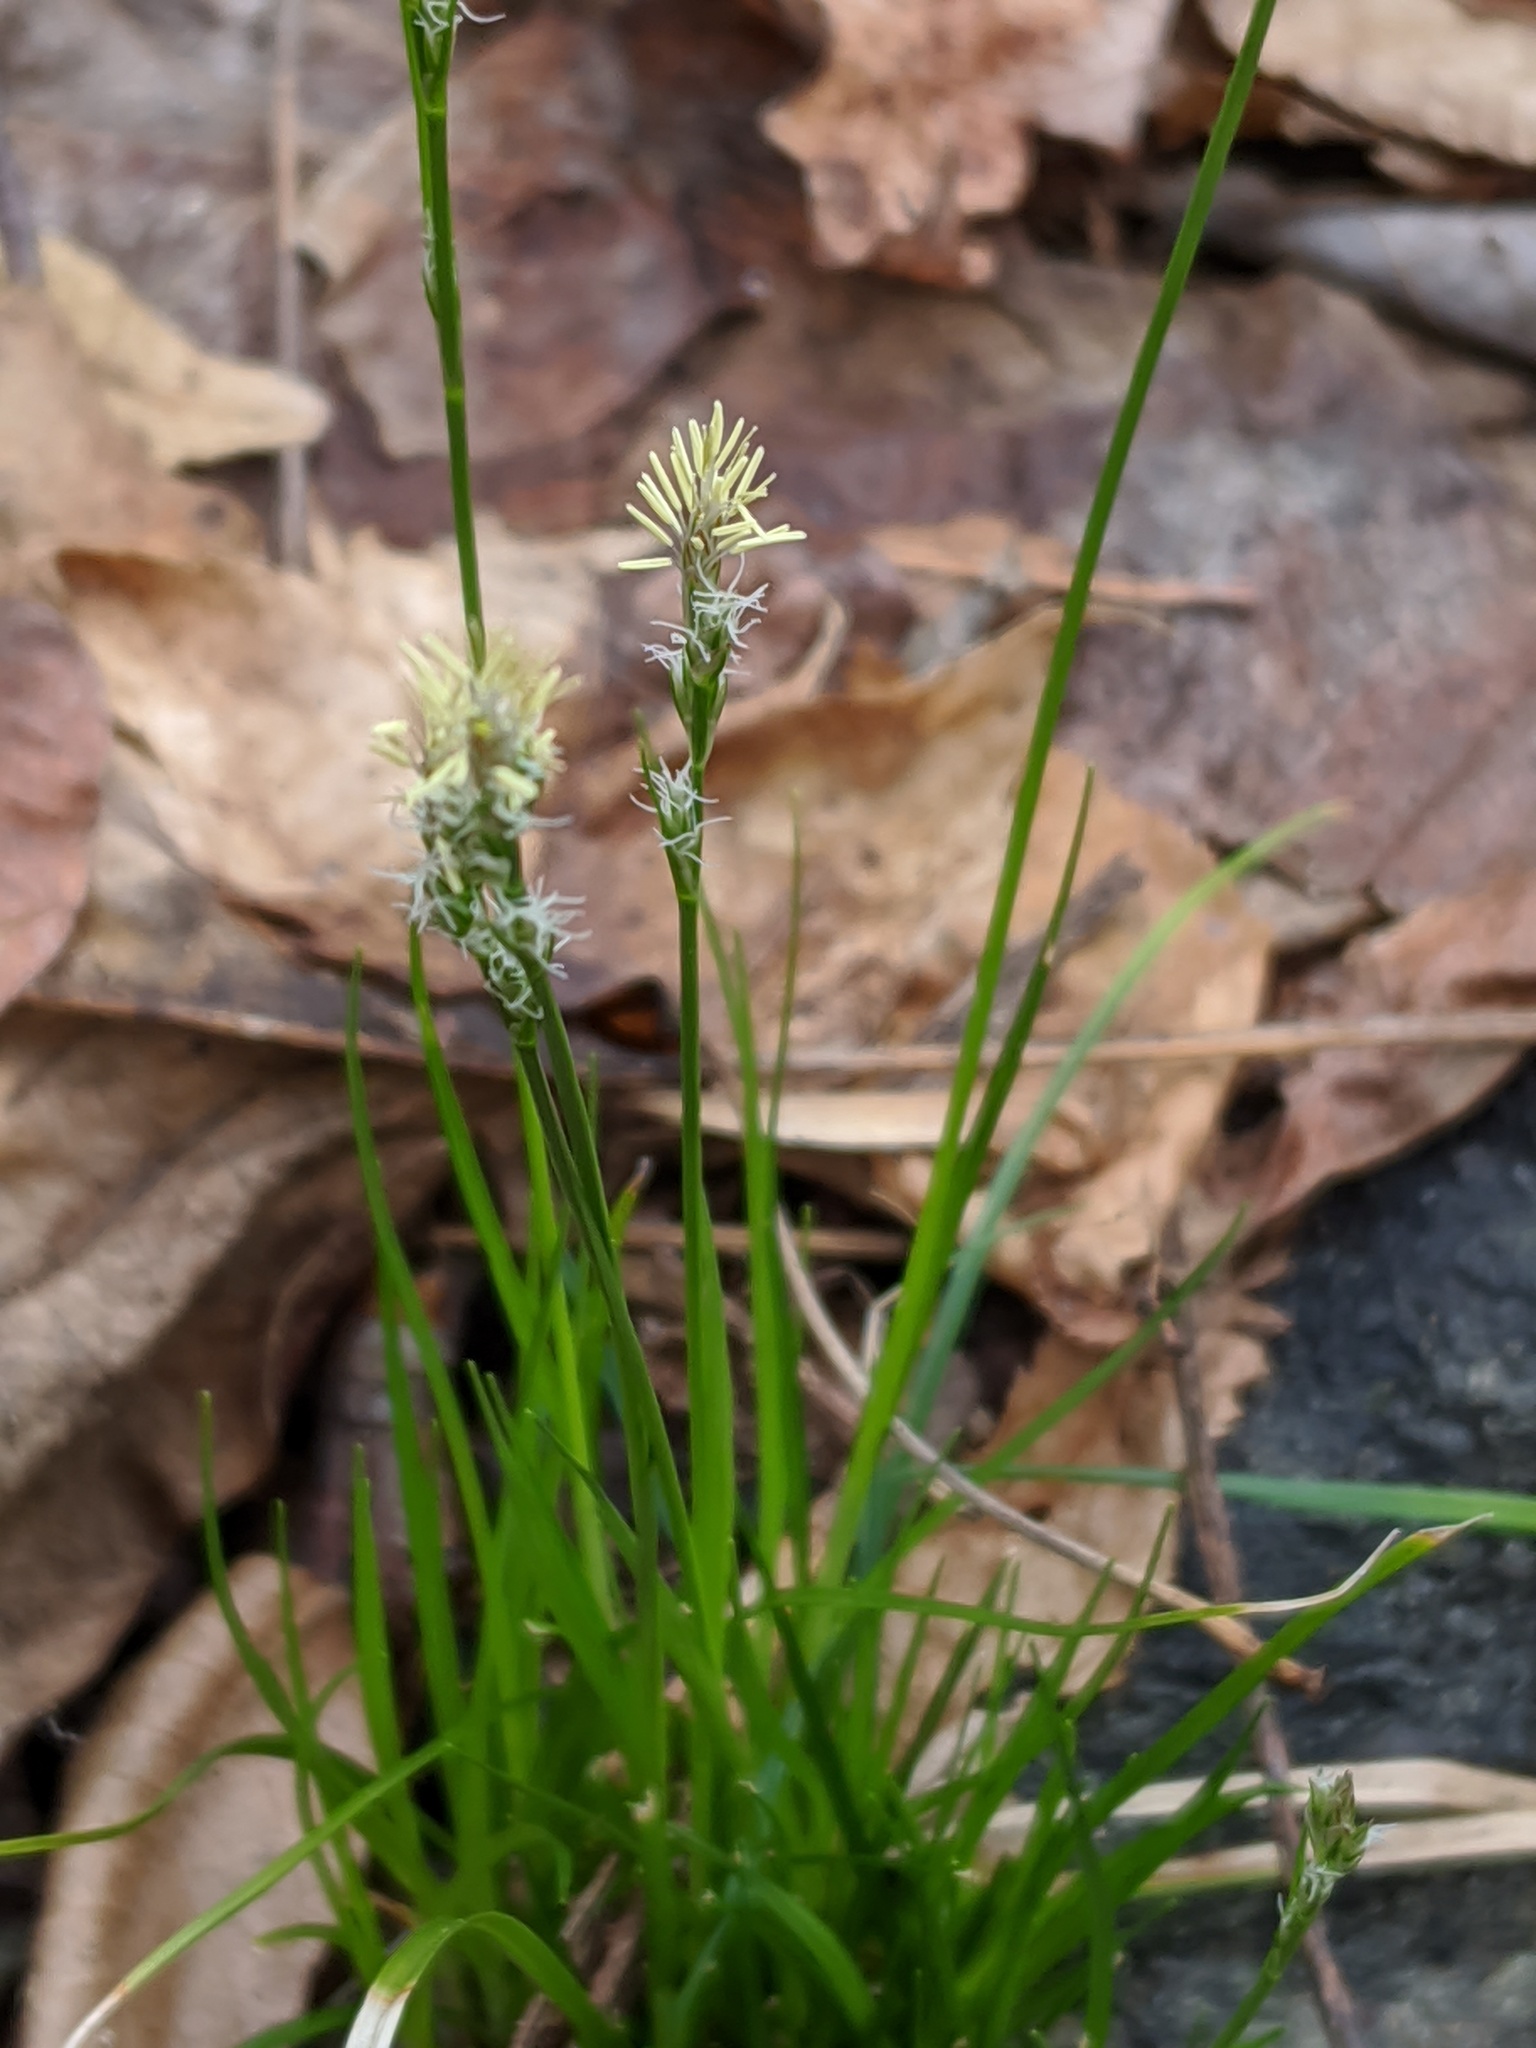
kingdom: Plantae
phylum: Tracheophyta
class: Liliopsida
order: Poales
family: Cyperaceae
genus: Carex
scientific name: Carex pensylvanica
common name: Common oak sedge
